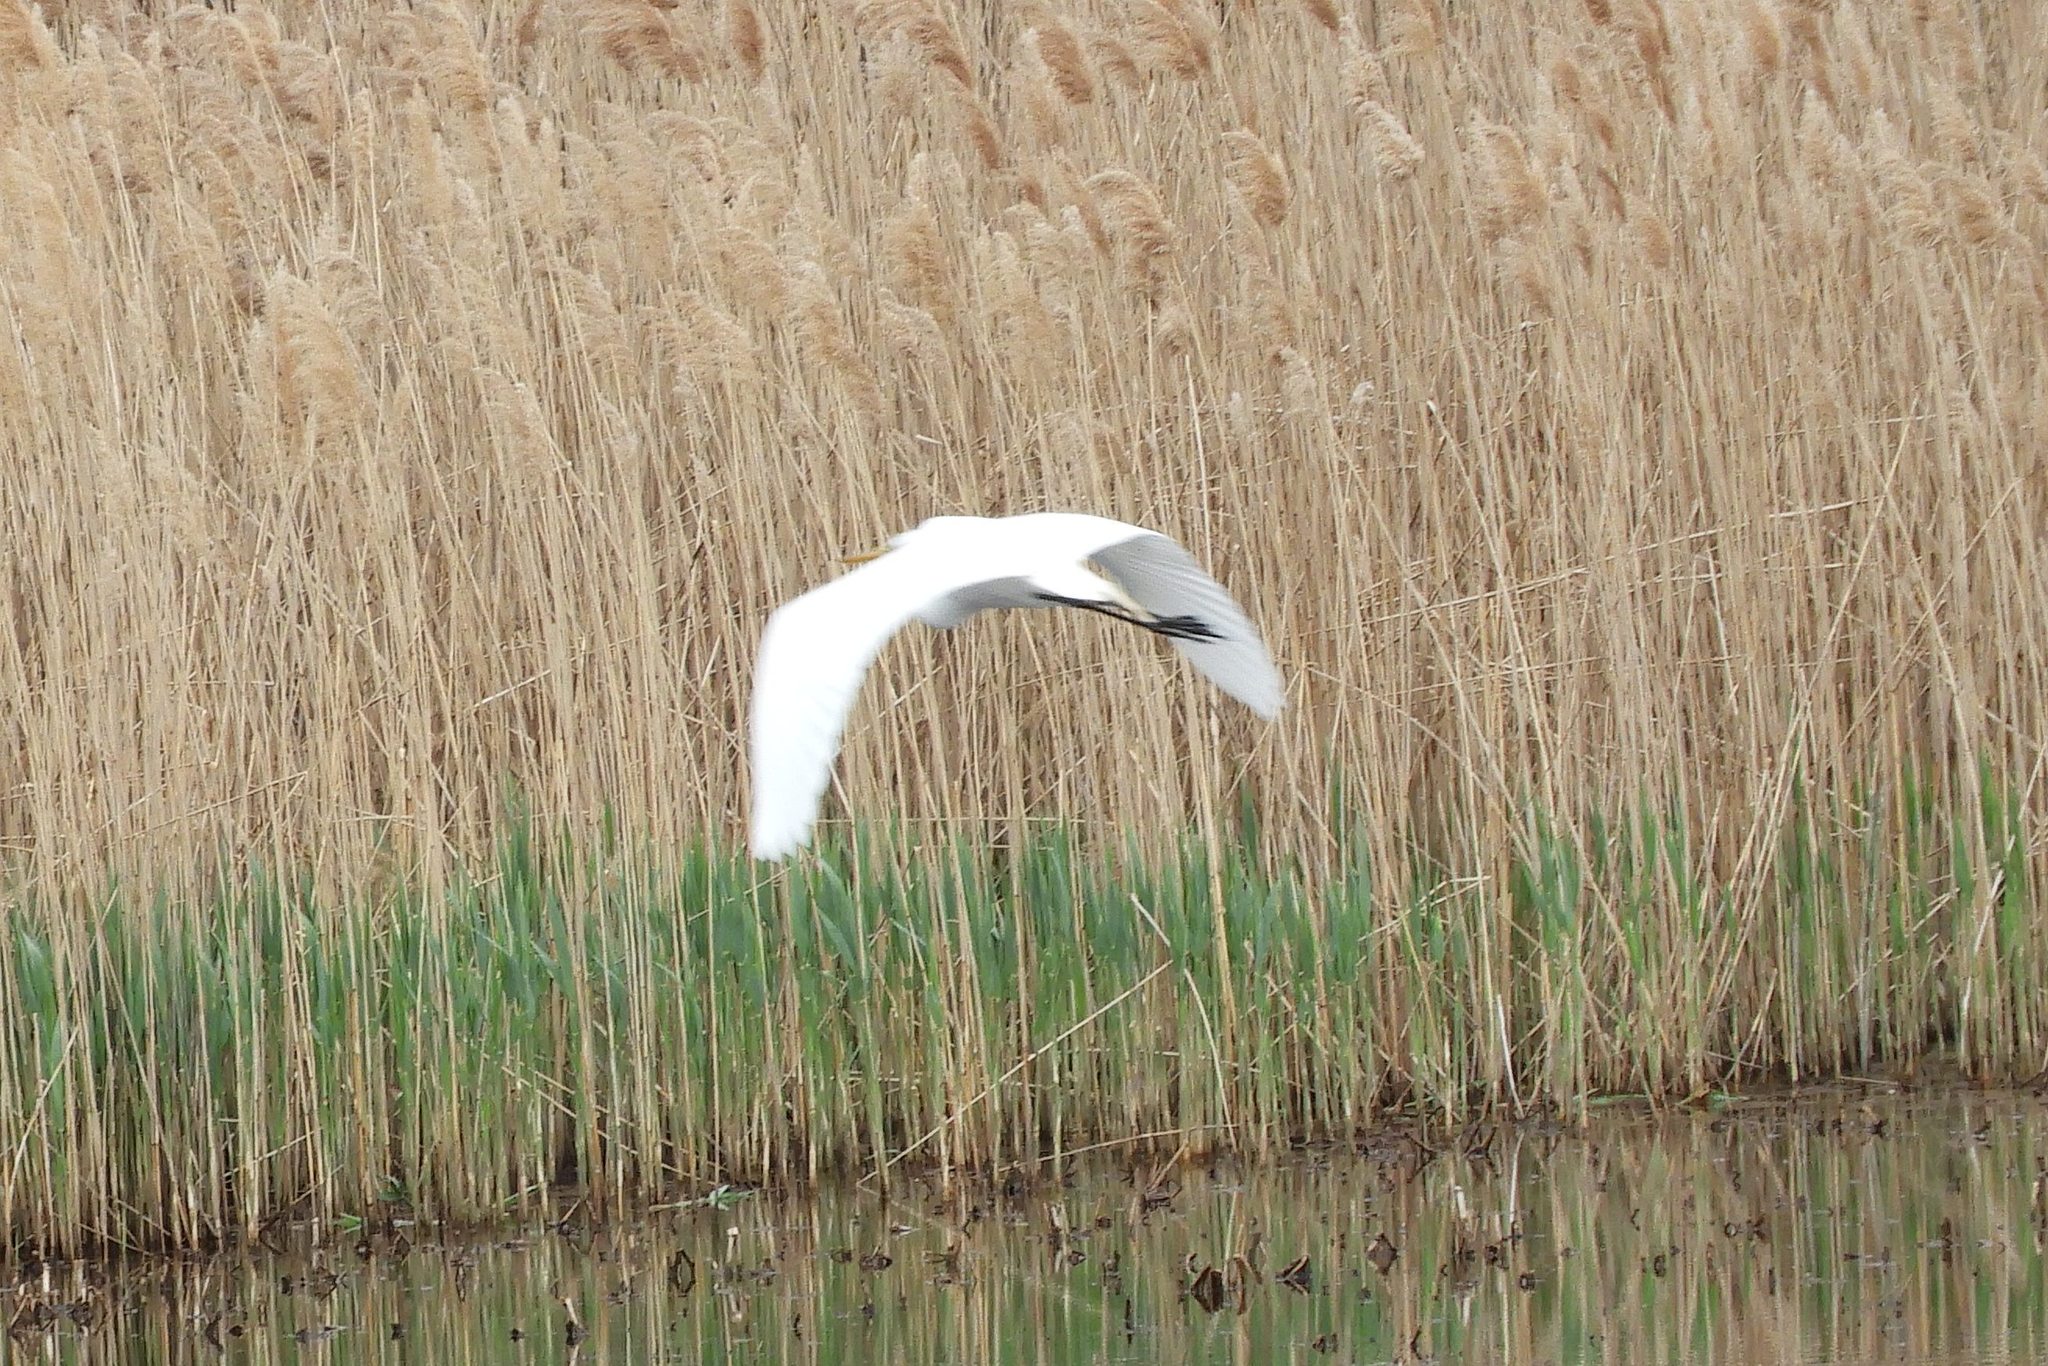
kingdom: Animalia
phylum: Chordata
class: Aves
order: Pelecaniformes
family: Ardeidae
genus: Ardea
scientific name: Ardea alba
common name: Great egret
